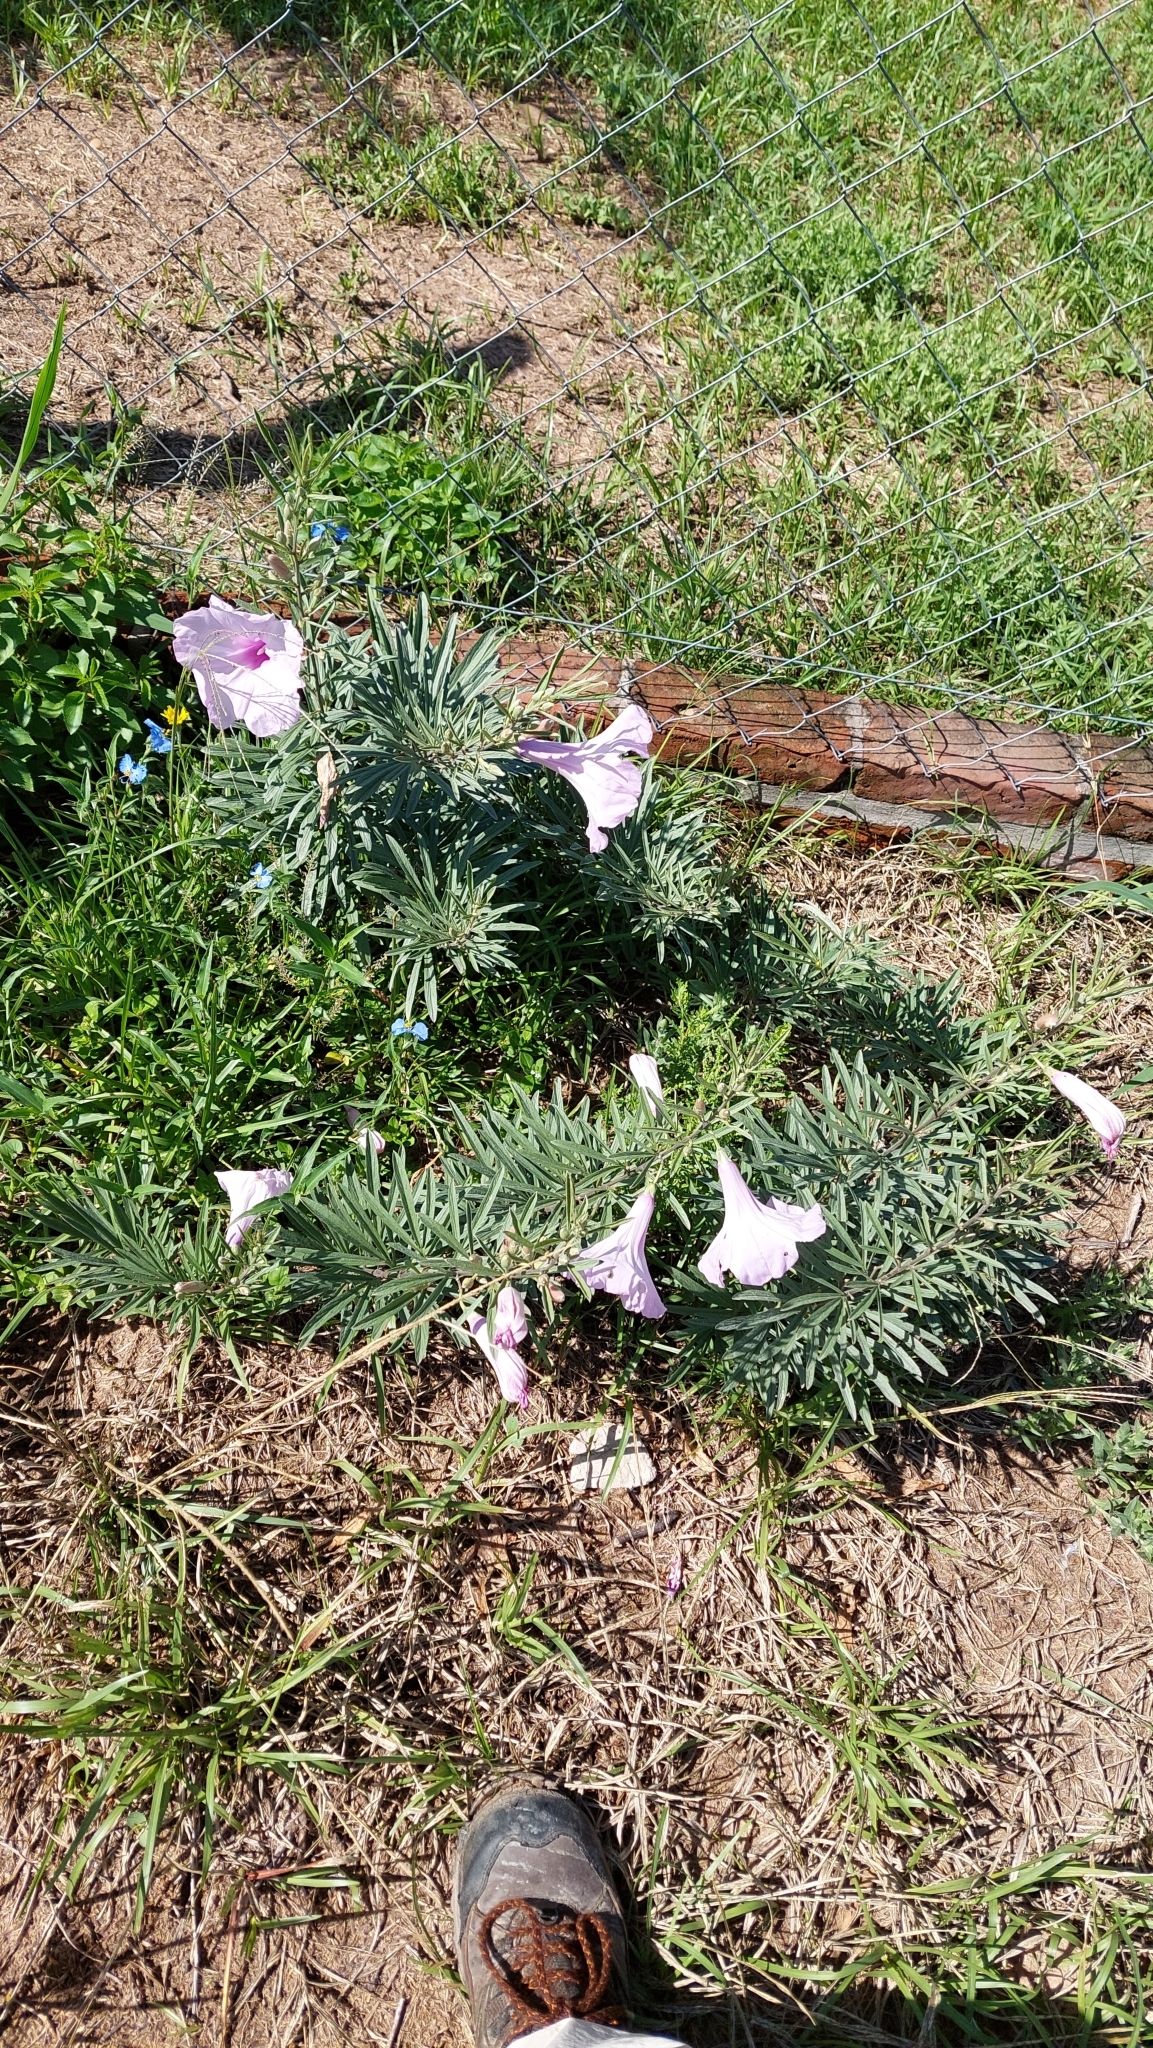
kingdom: Plantae
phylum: Tracheophyta
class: Magnoliopsida
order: Solanales
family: Convolvulaceae
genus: Ipomoea
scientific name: Ipomoea malvaeoides
